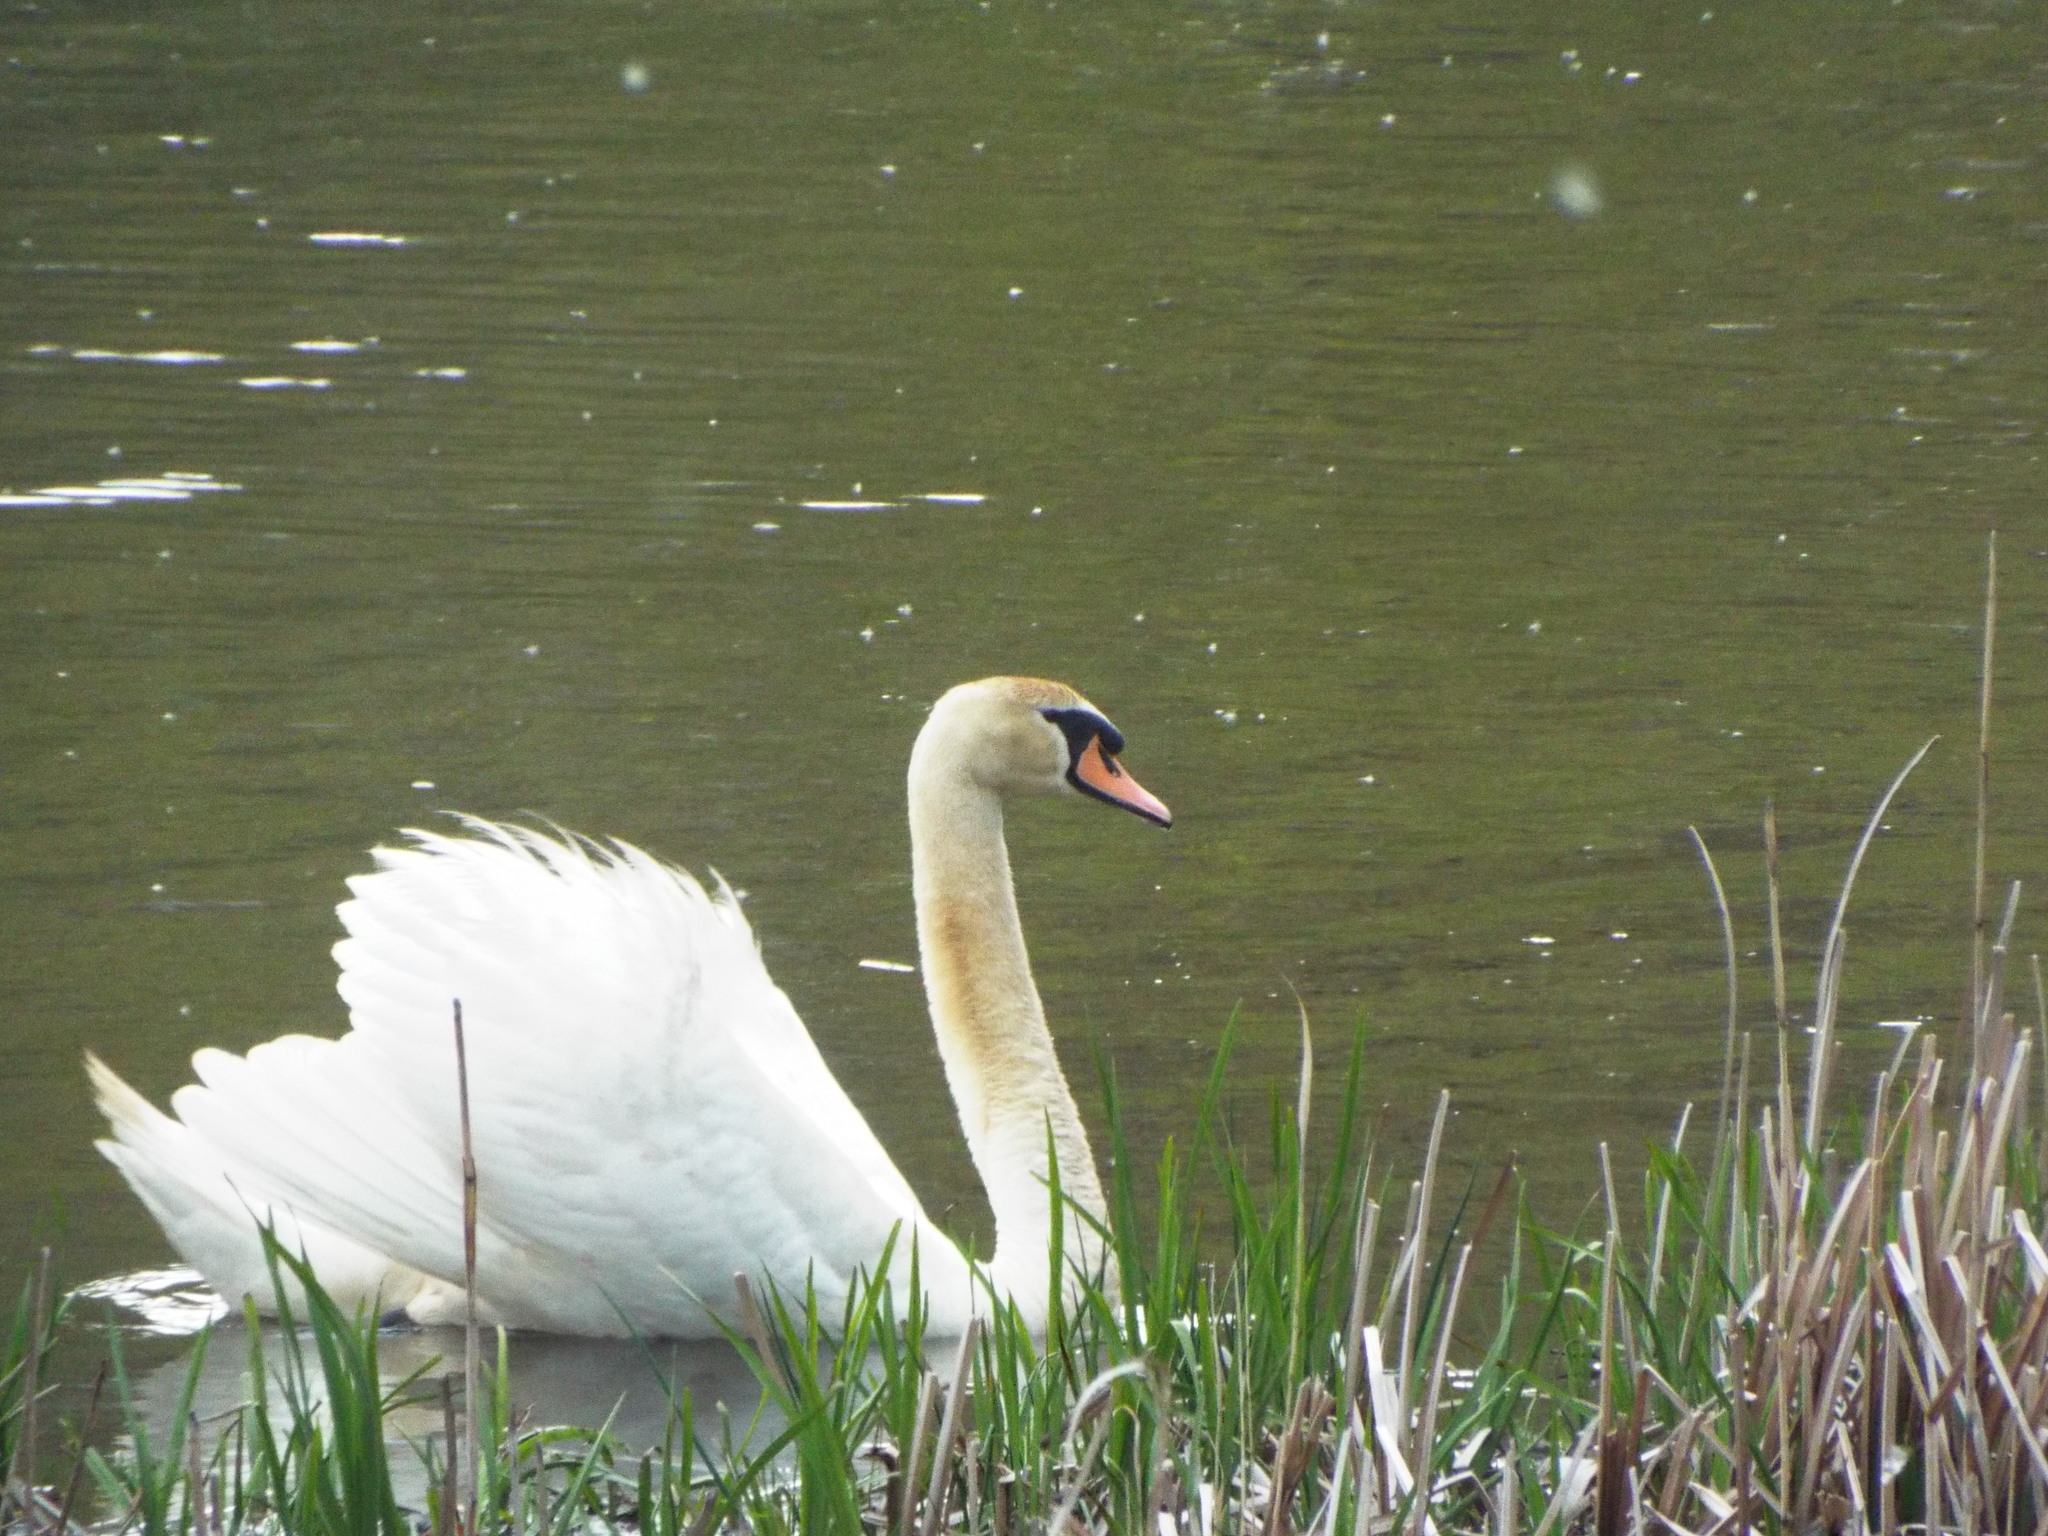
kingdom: Animalia
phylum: Chordata
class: Aves
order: Anseriformes
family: Anatidae
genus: Cygnus
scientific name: Cygnus olor
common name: Mute swan
